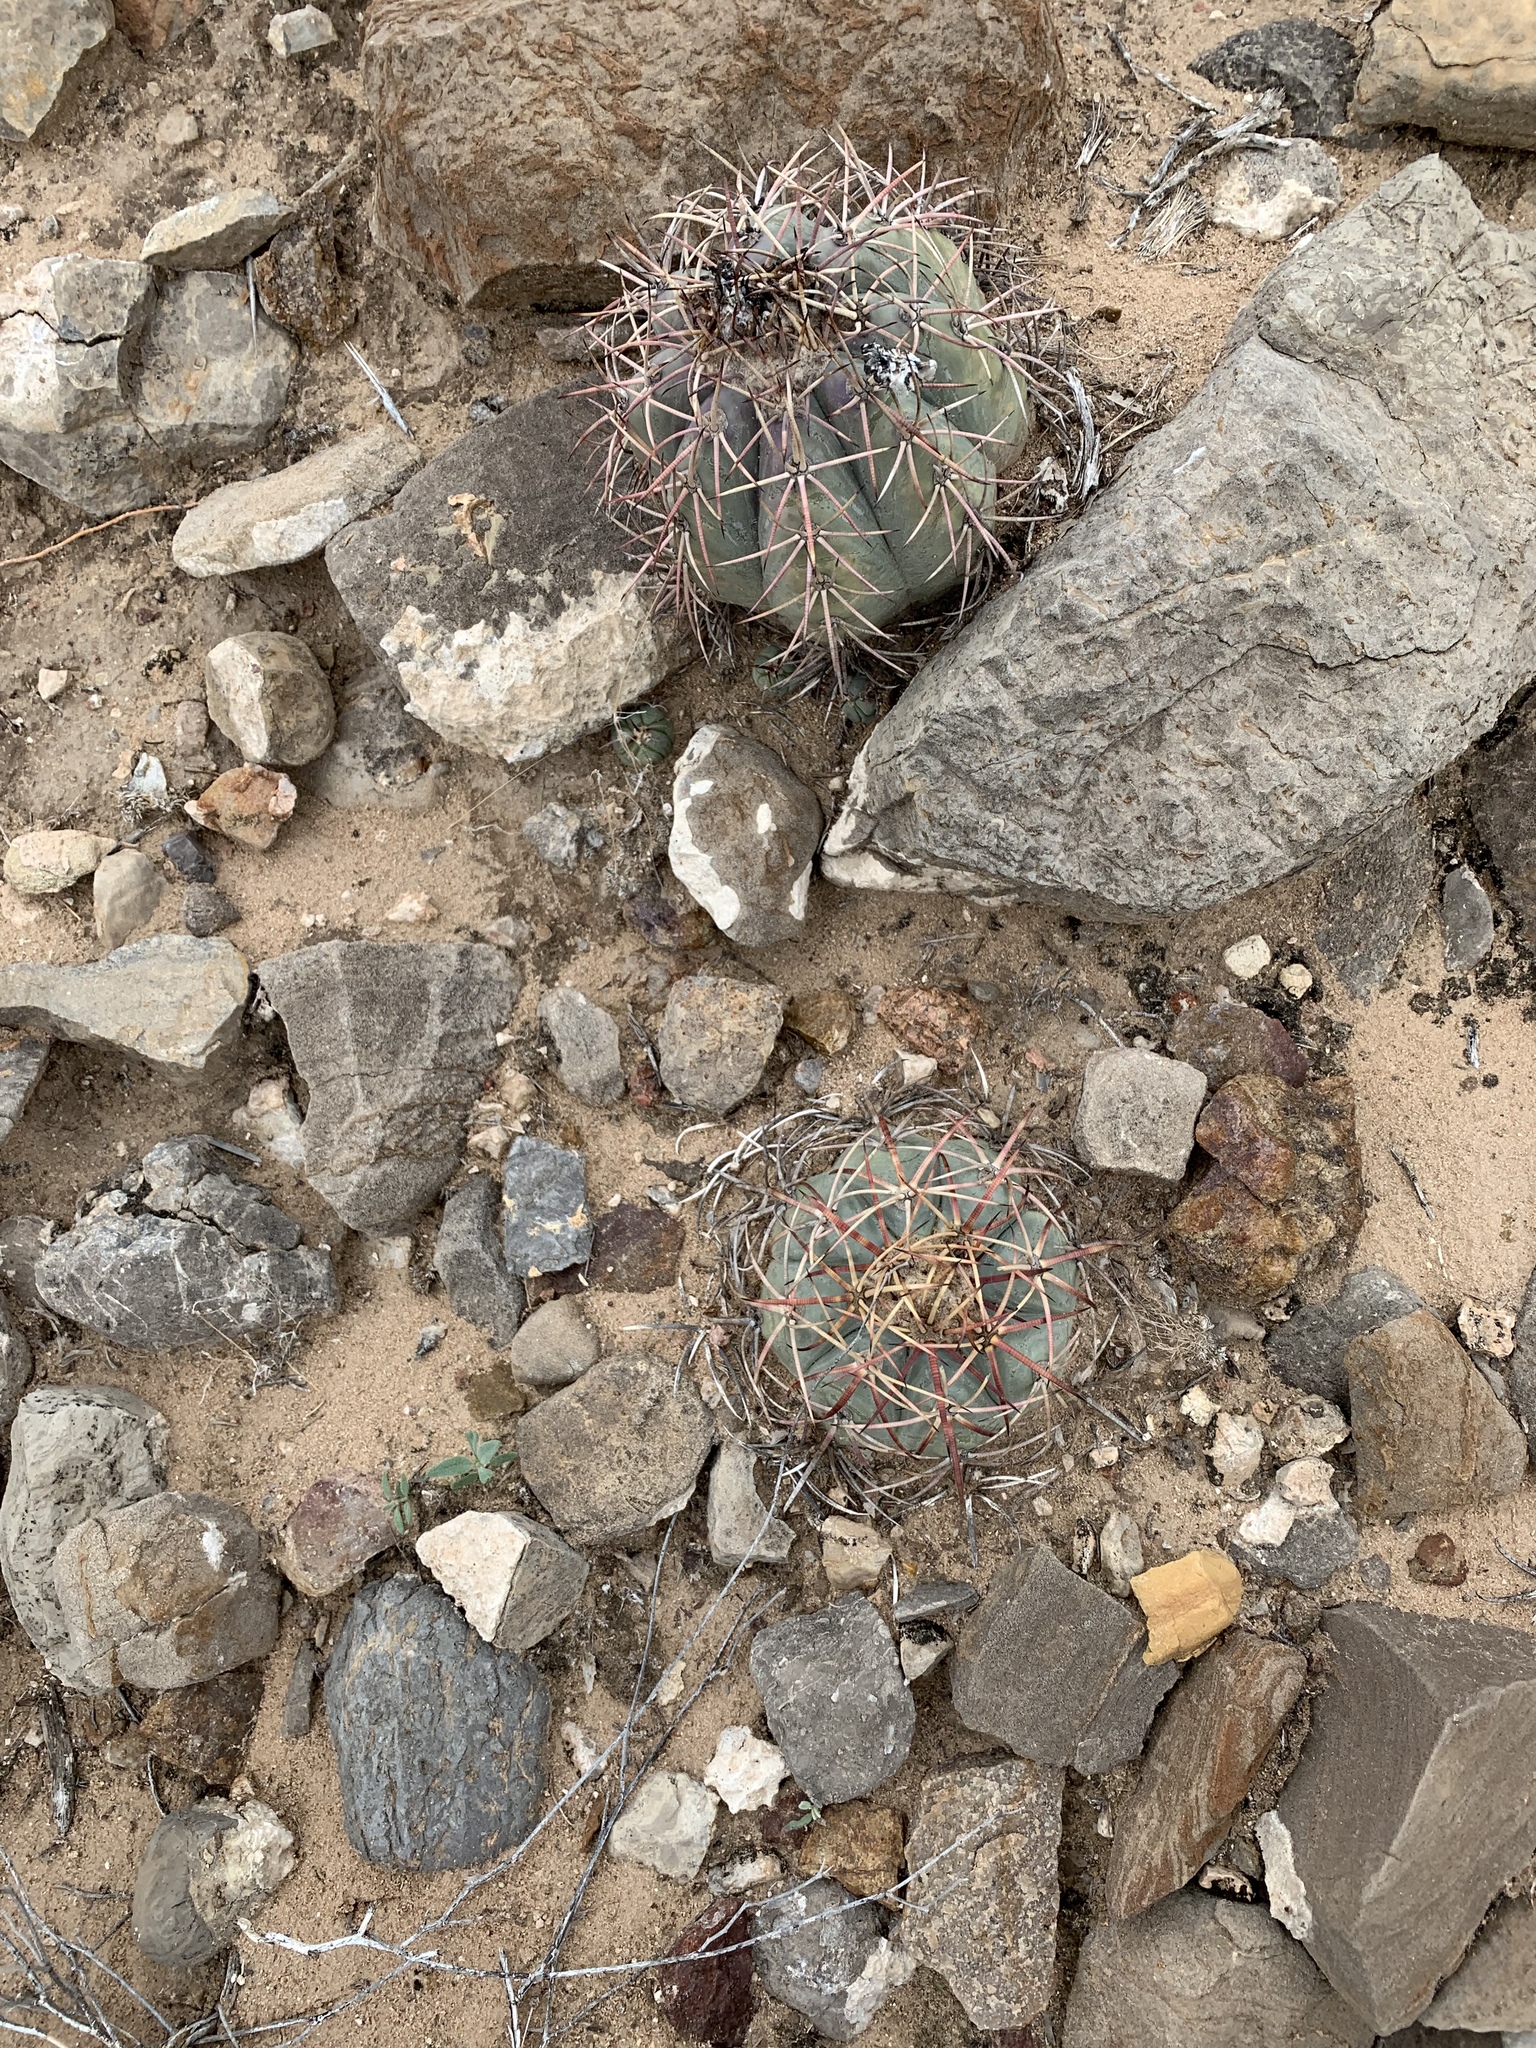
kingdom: Plantae
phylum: Tracheophyta
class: Magnoliopsida
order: Caryophyllales
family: Cactaceae
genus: Echinocactus
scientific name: Echinocactus horizonthalonius
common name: Devilshead
